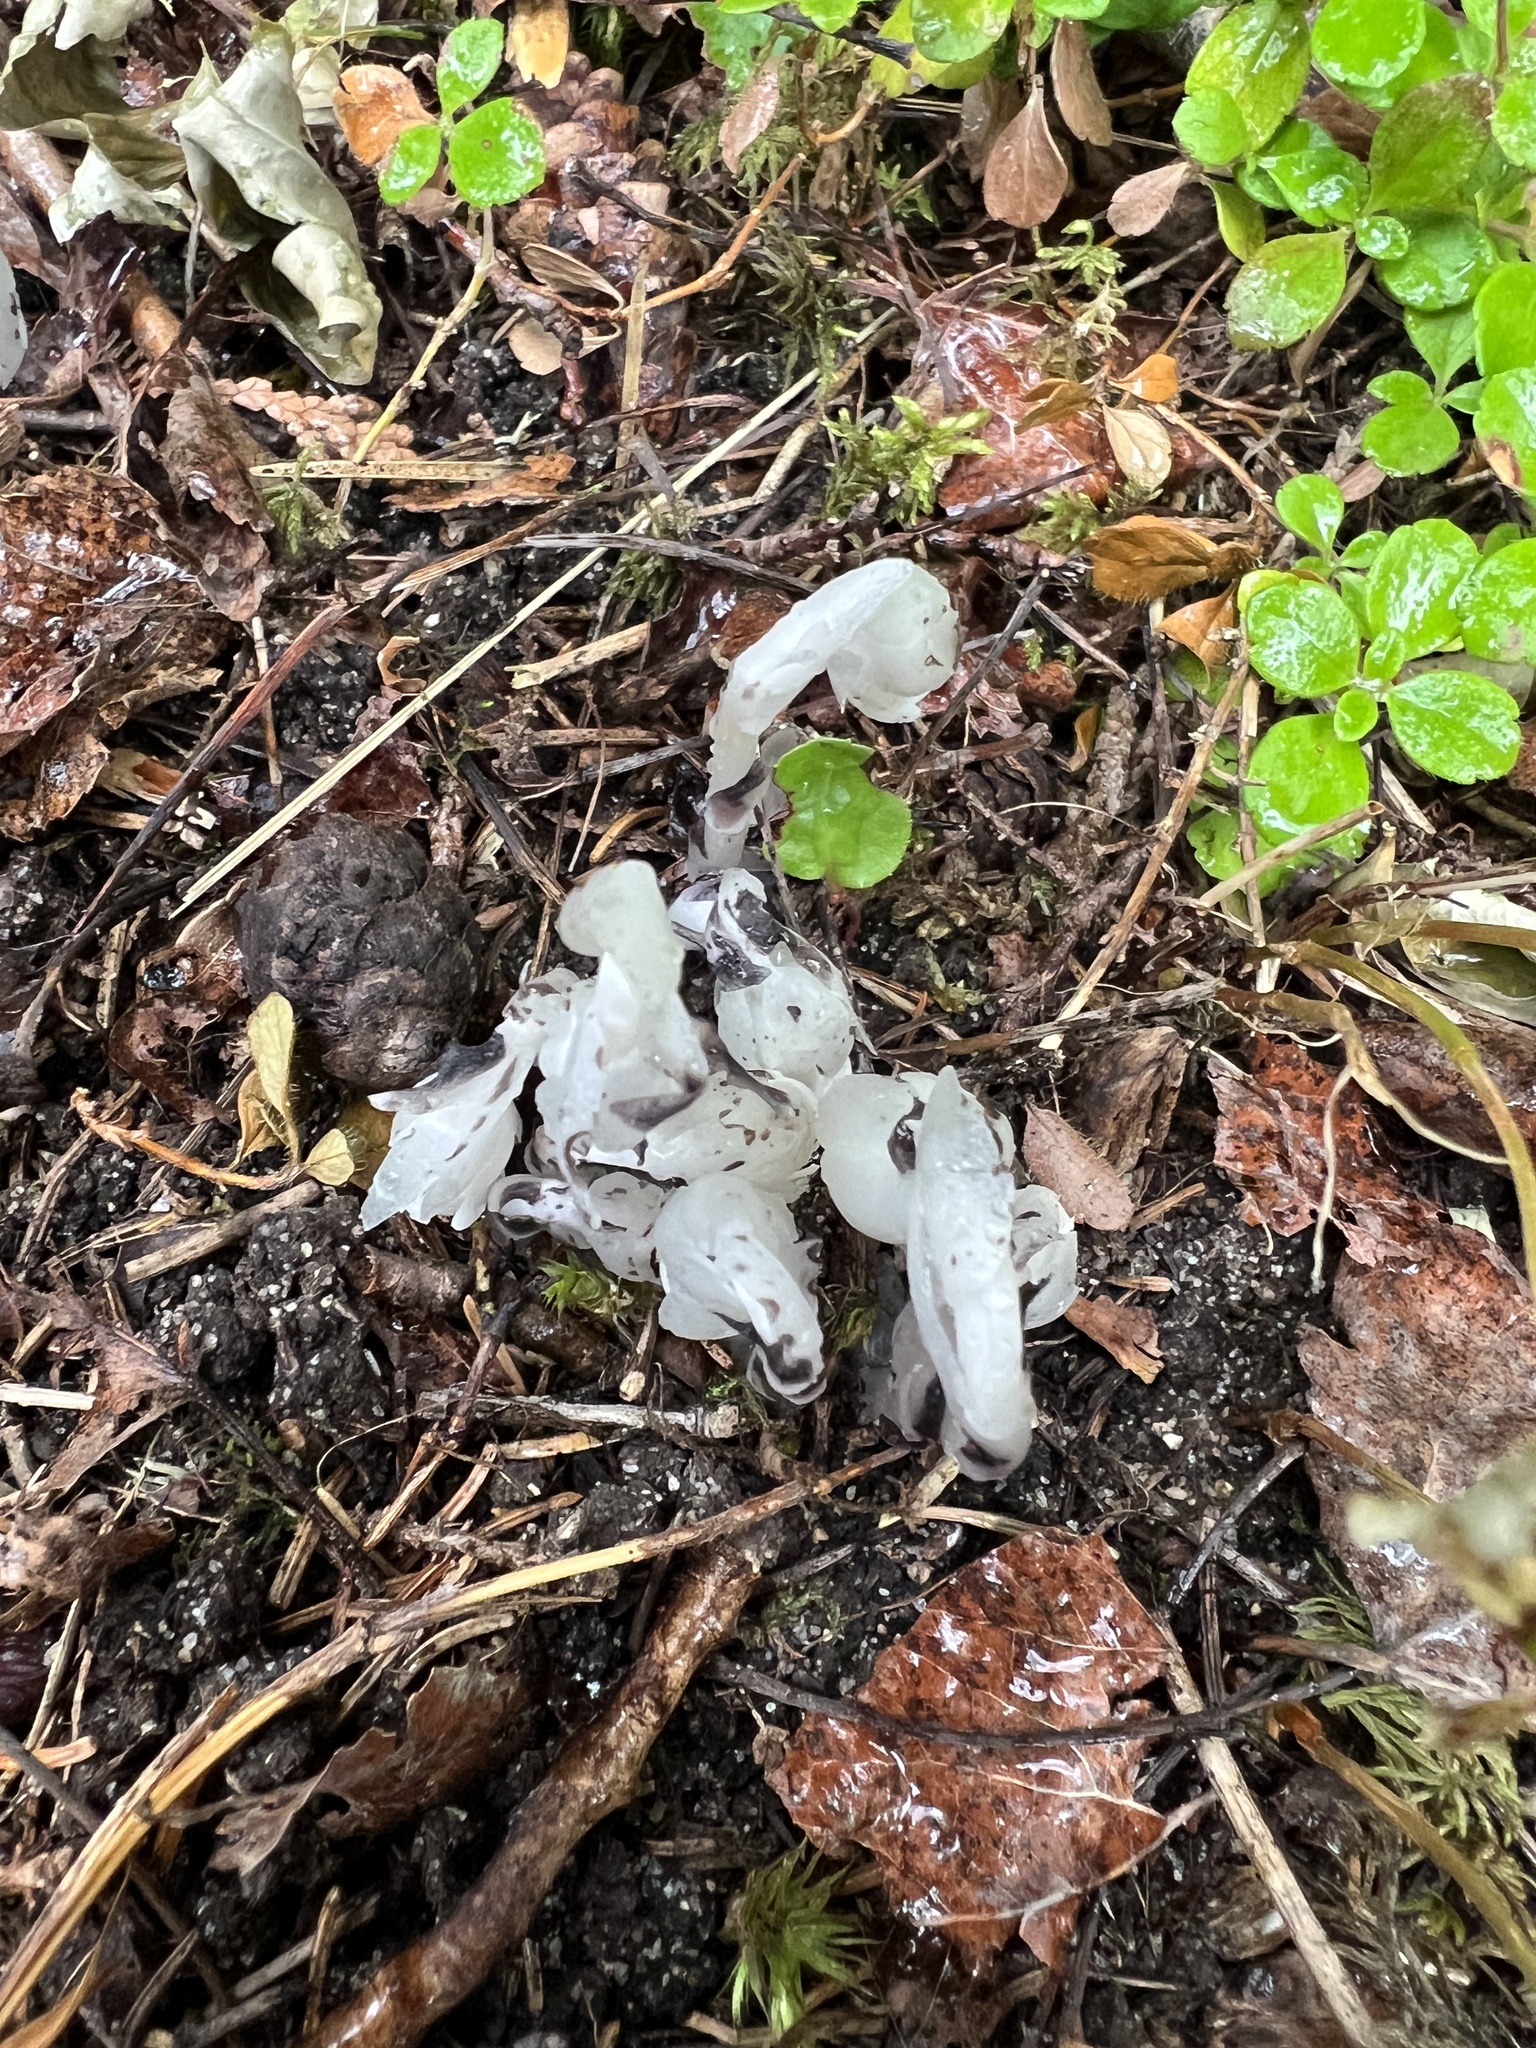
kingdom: Plantae
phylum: Tracheophyta
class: Magnoliopsida
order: Ericales
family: Ericaceae
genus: Monotropa
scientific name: Monotropa uniflora
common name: Convulsion root
